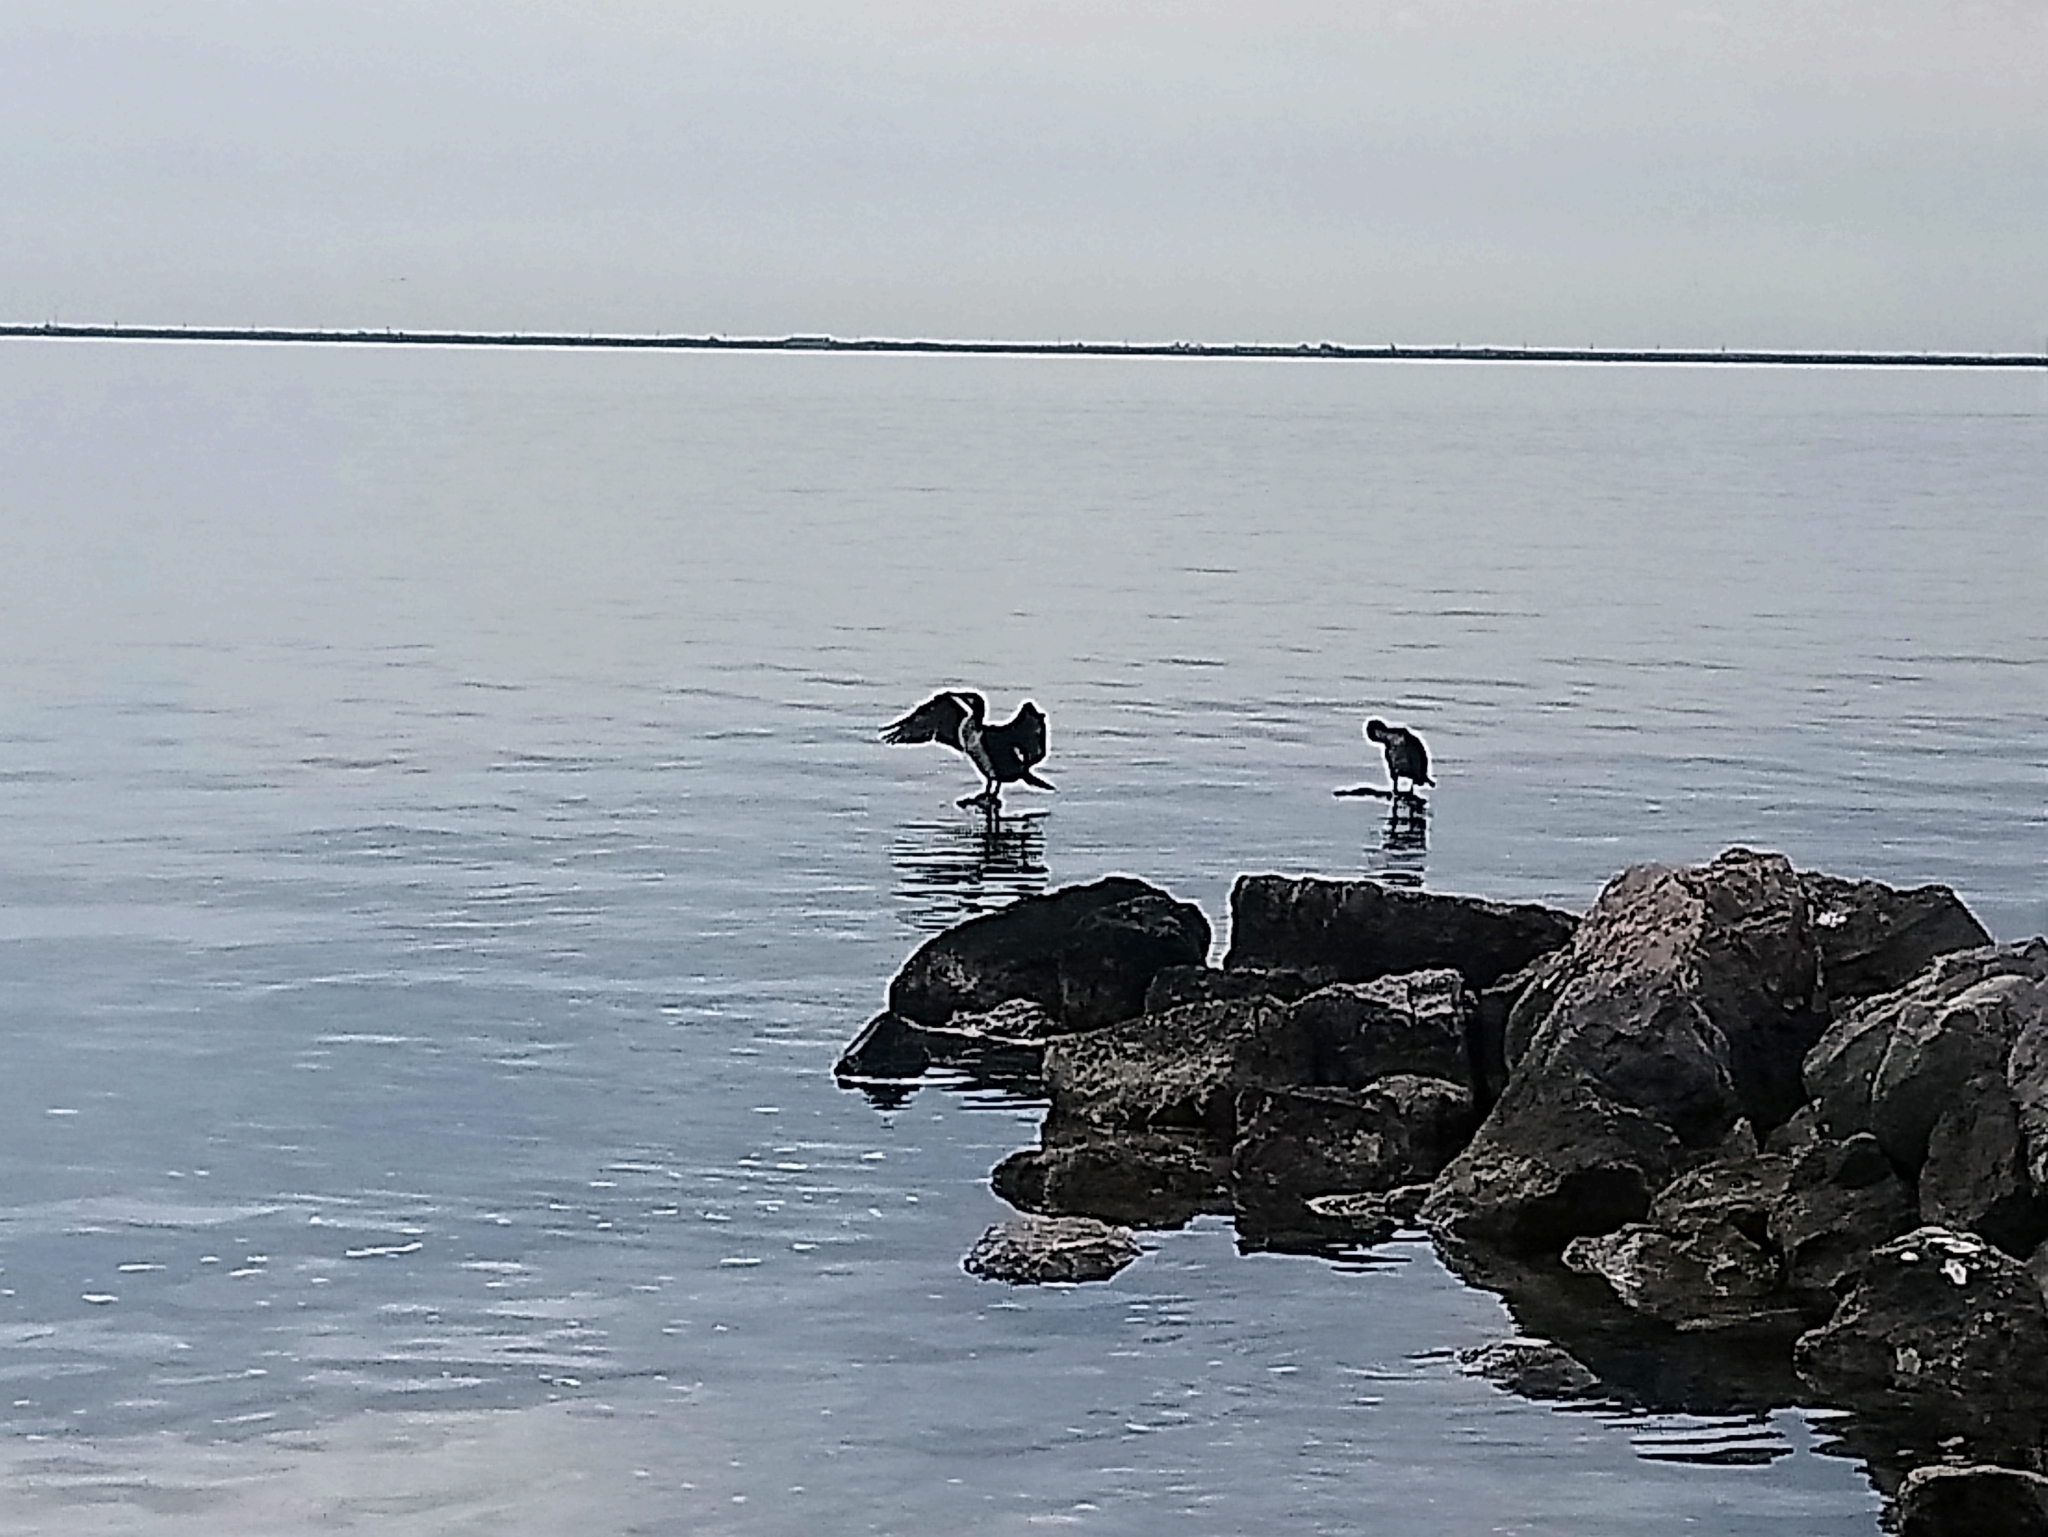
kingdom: Animalia
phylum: Chordata
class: Aves
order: Suliformes
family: Phalacrocoracidae
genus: Phalacrocorax
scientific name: Phalacrocorax carbo
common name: Great cormorant
